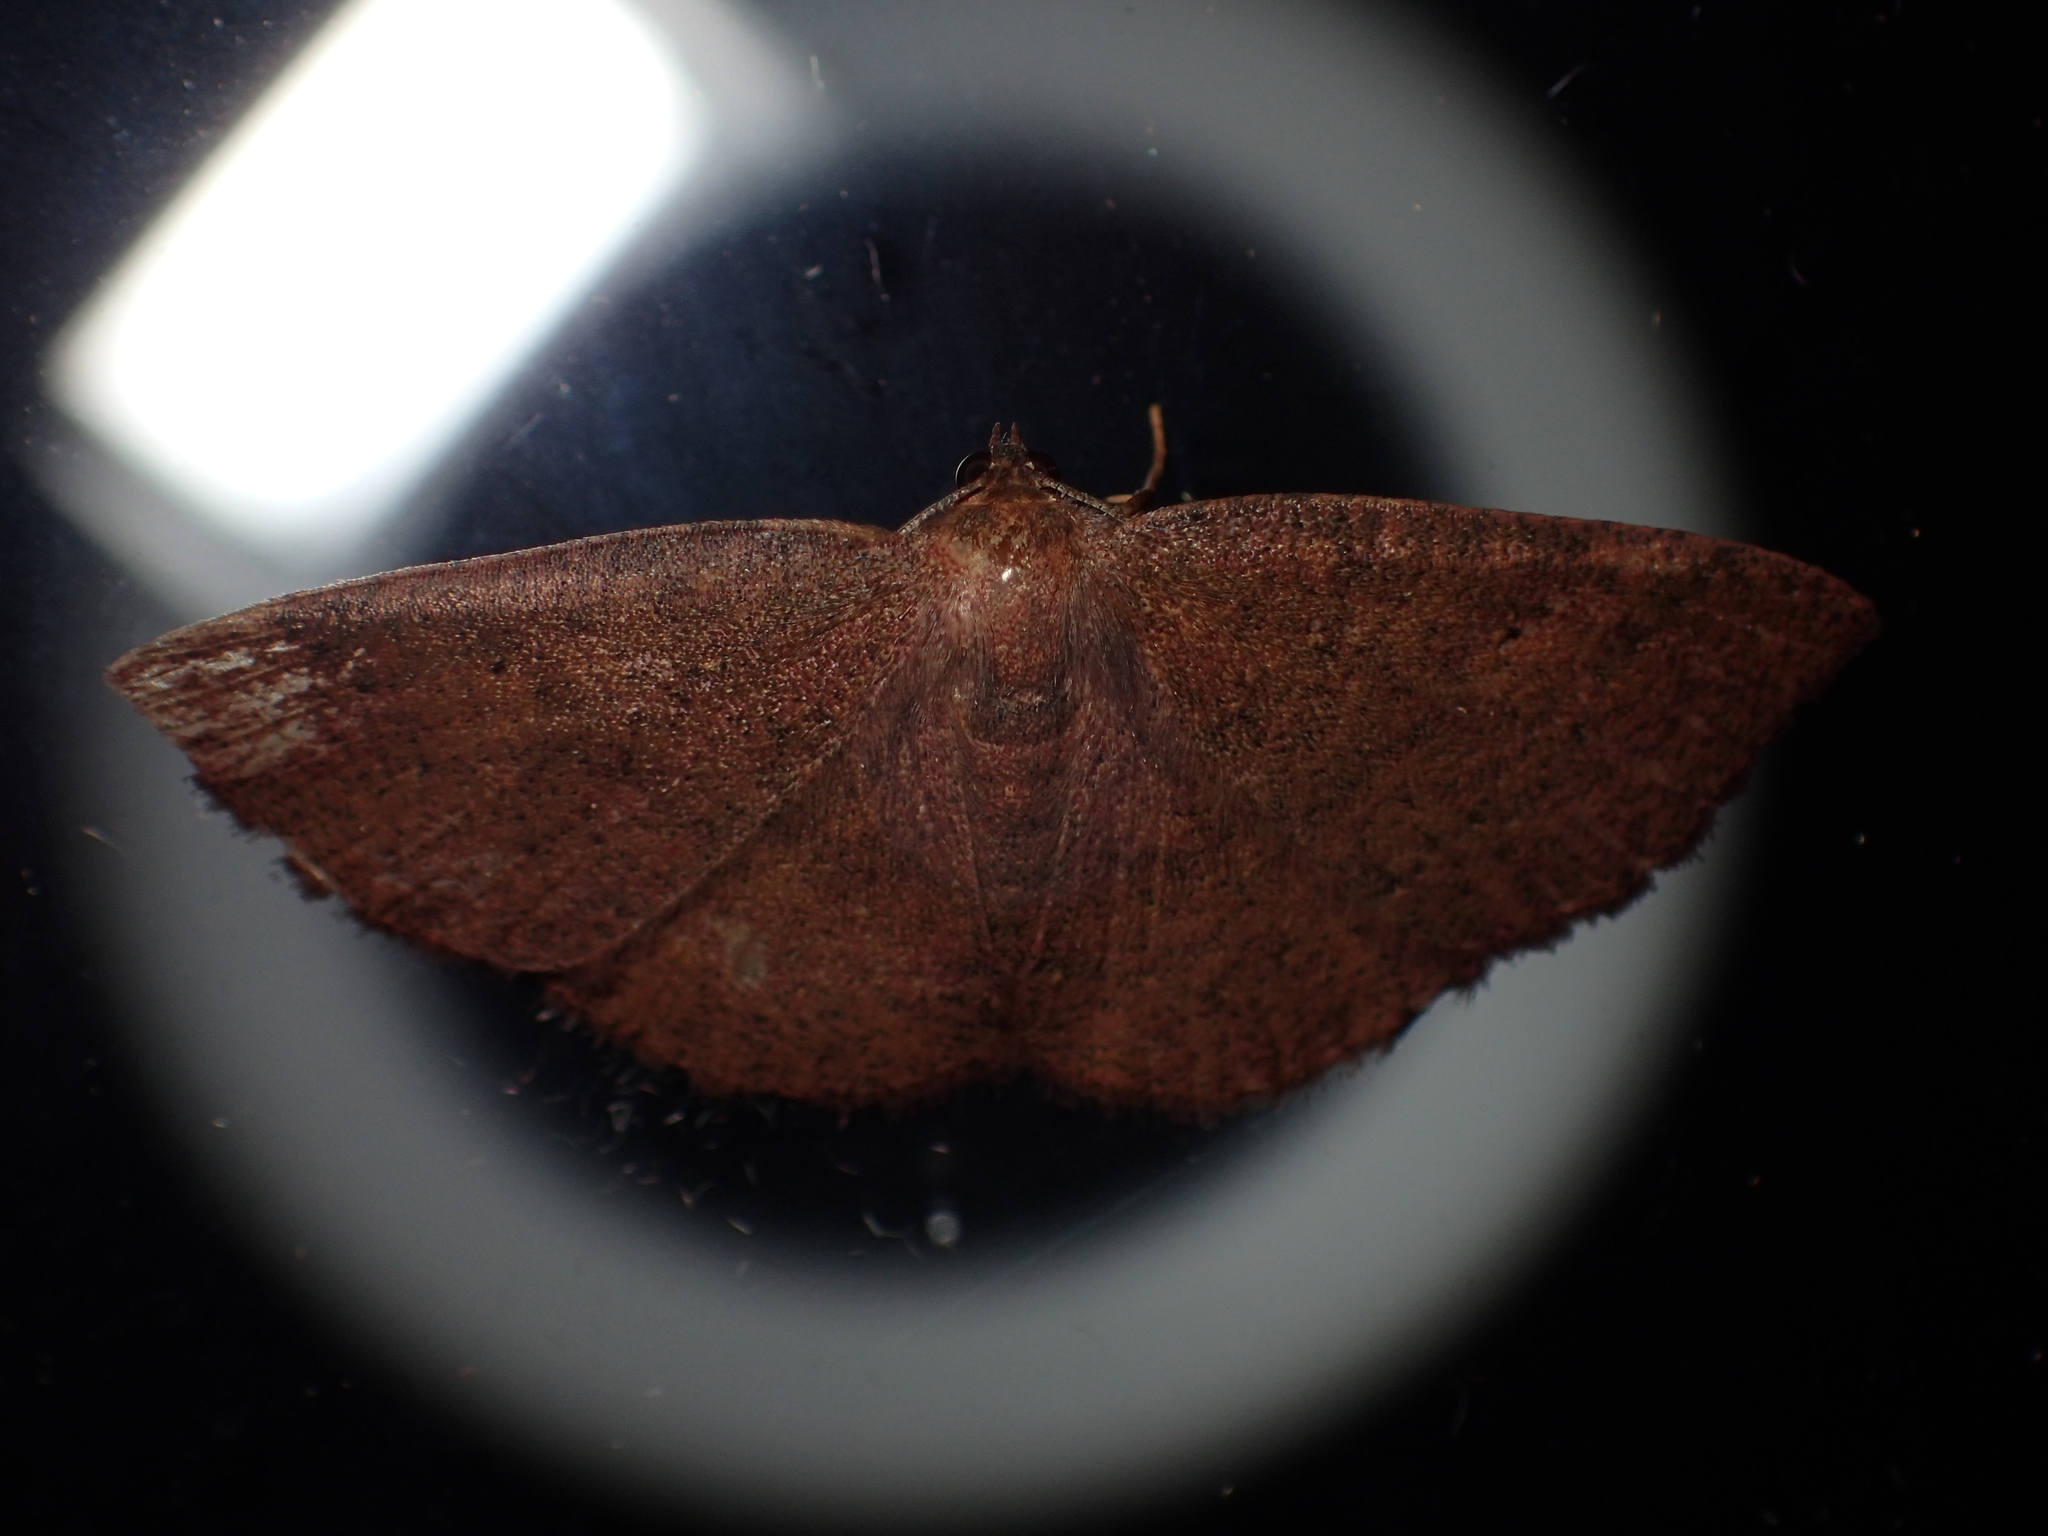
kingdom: Animalia
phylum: Arthropoda
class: Insecta
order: Lepidoptera
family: Geometridae
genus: Ilexia
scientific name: Ilexia intractata
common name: Black-dotted ruddy moth
